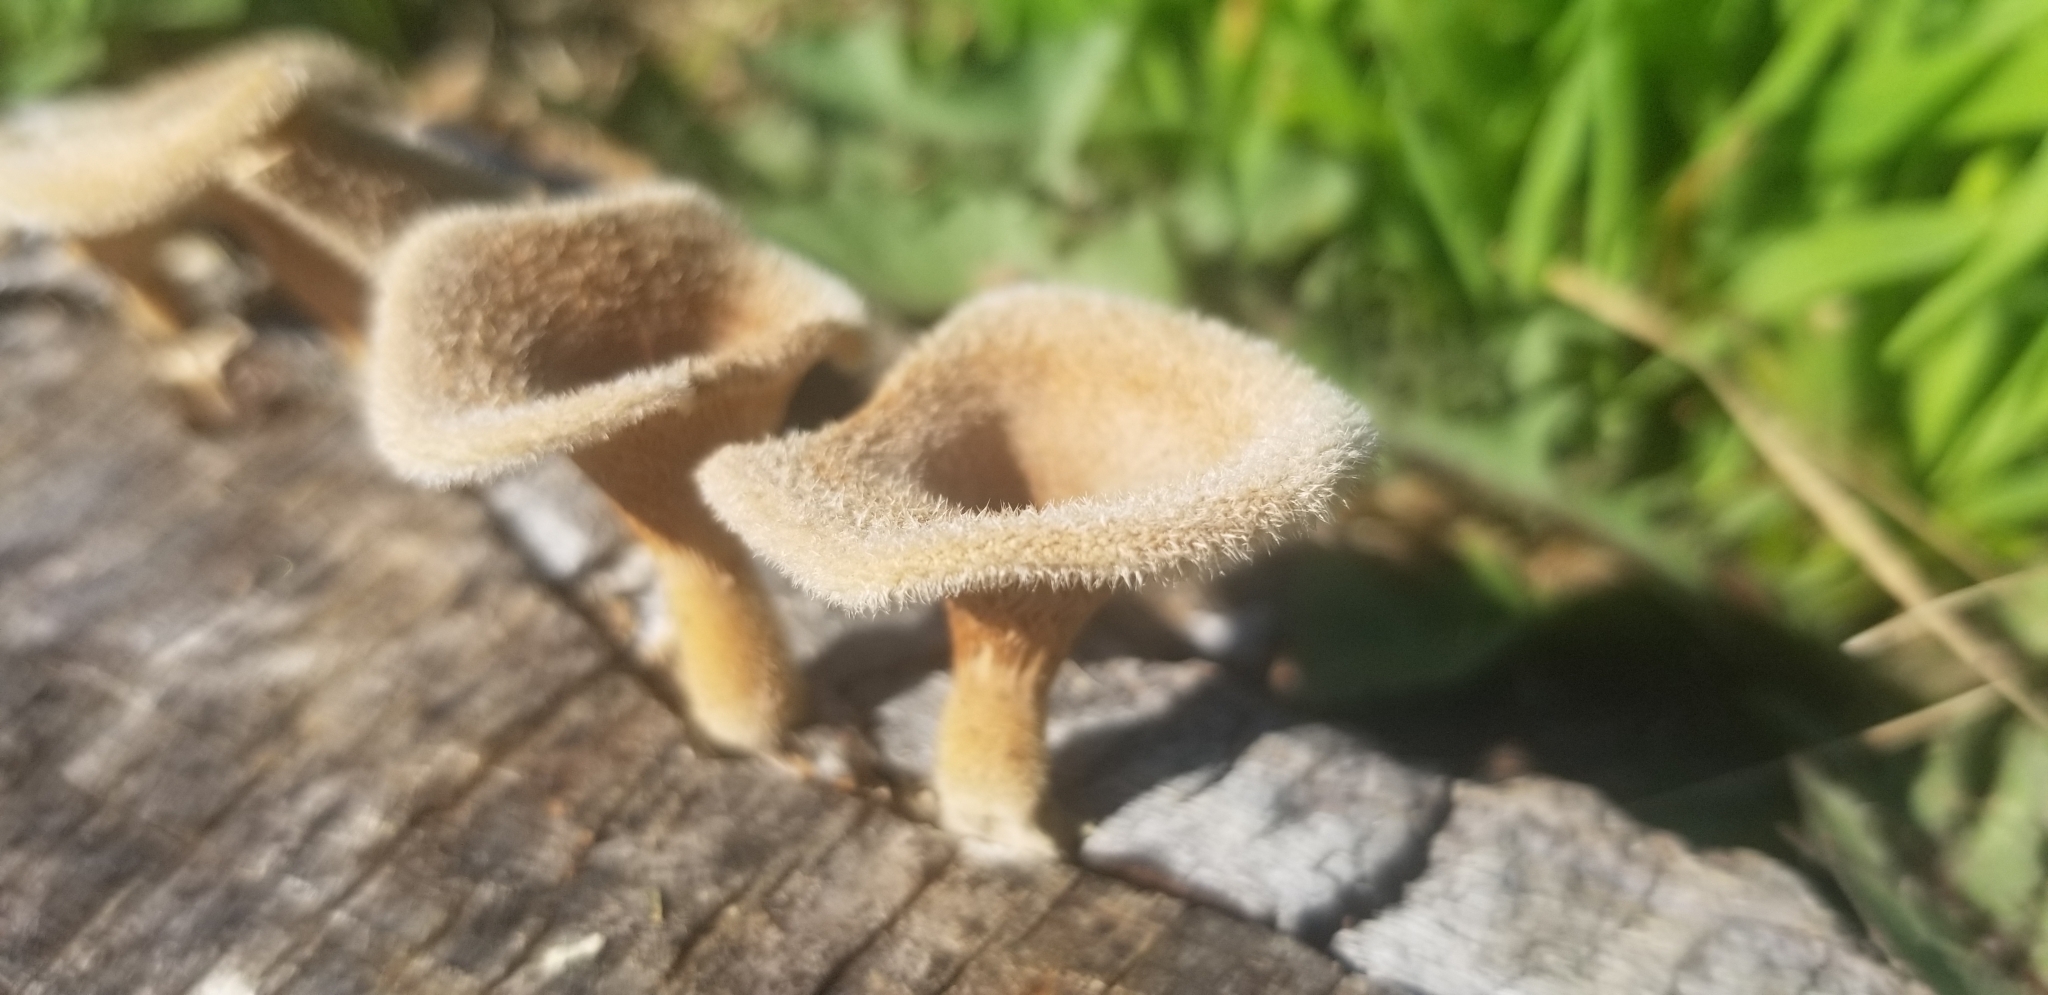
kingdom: Fungi
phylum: Basidiomycota
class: Agaricomycetes
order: Polyporales
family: Panaceae
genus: Panus
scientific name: Panus neostrigosus
